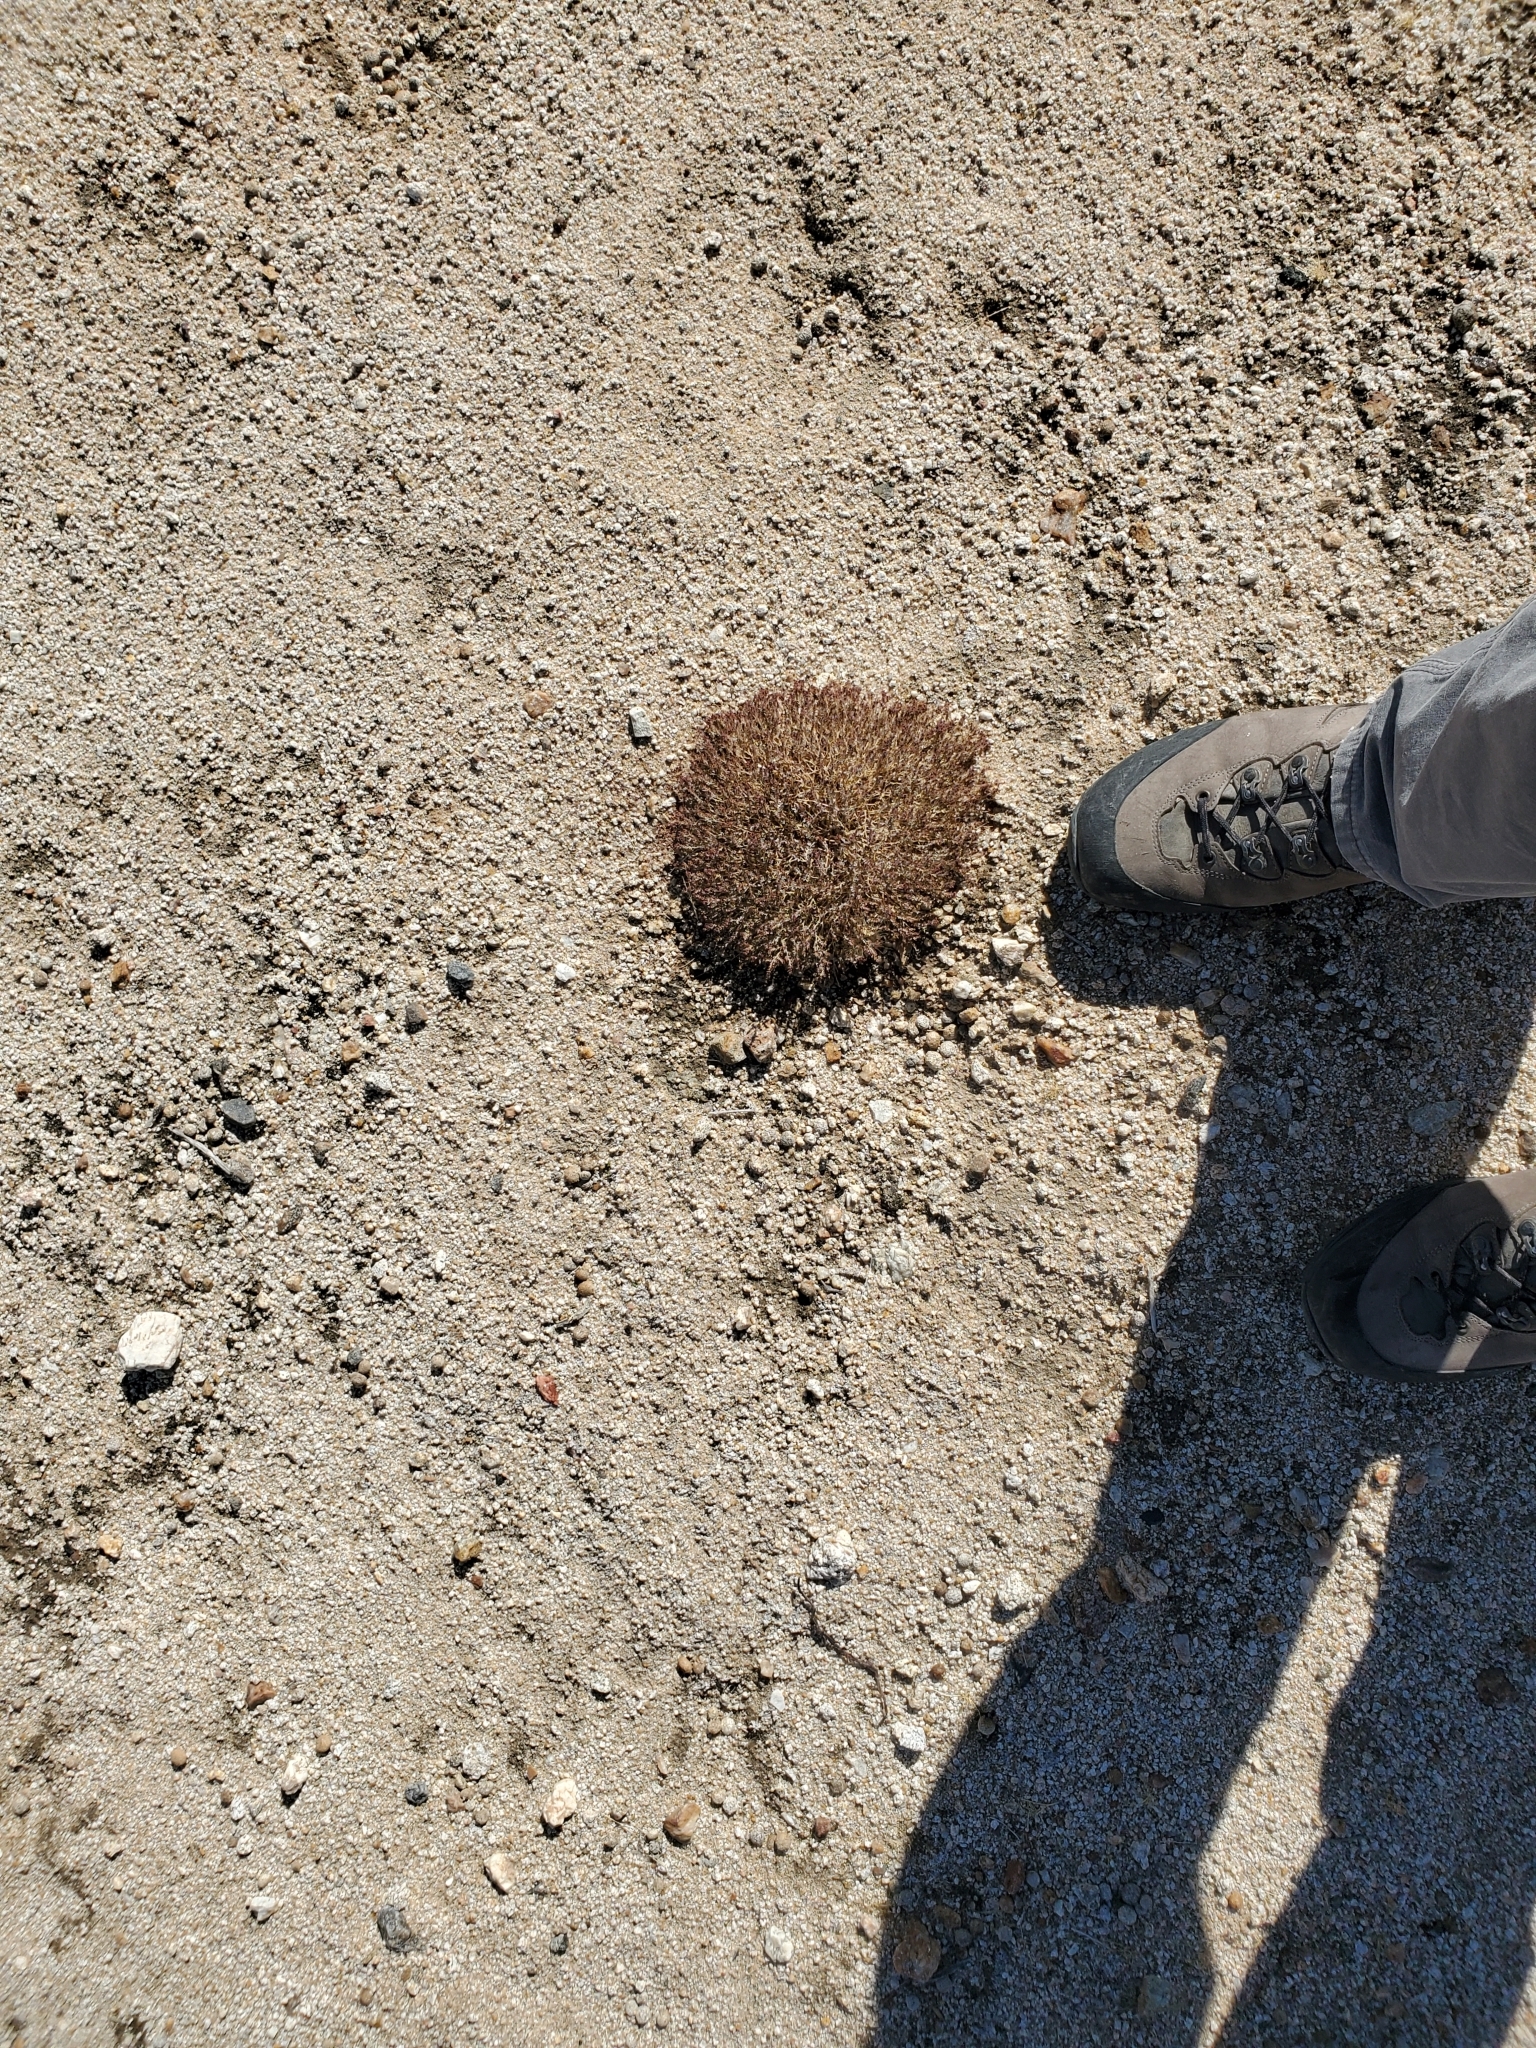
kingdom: Plantae
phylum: Tracheophyta
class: Magnoliopsida
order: Malpighiales
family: Euphorbiaceae
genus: Euphorbia
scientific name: Euphorbia polycarpa
